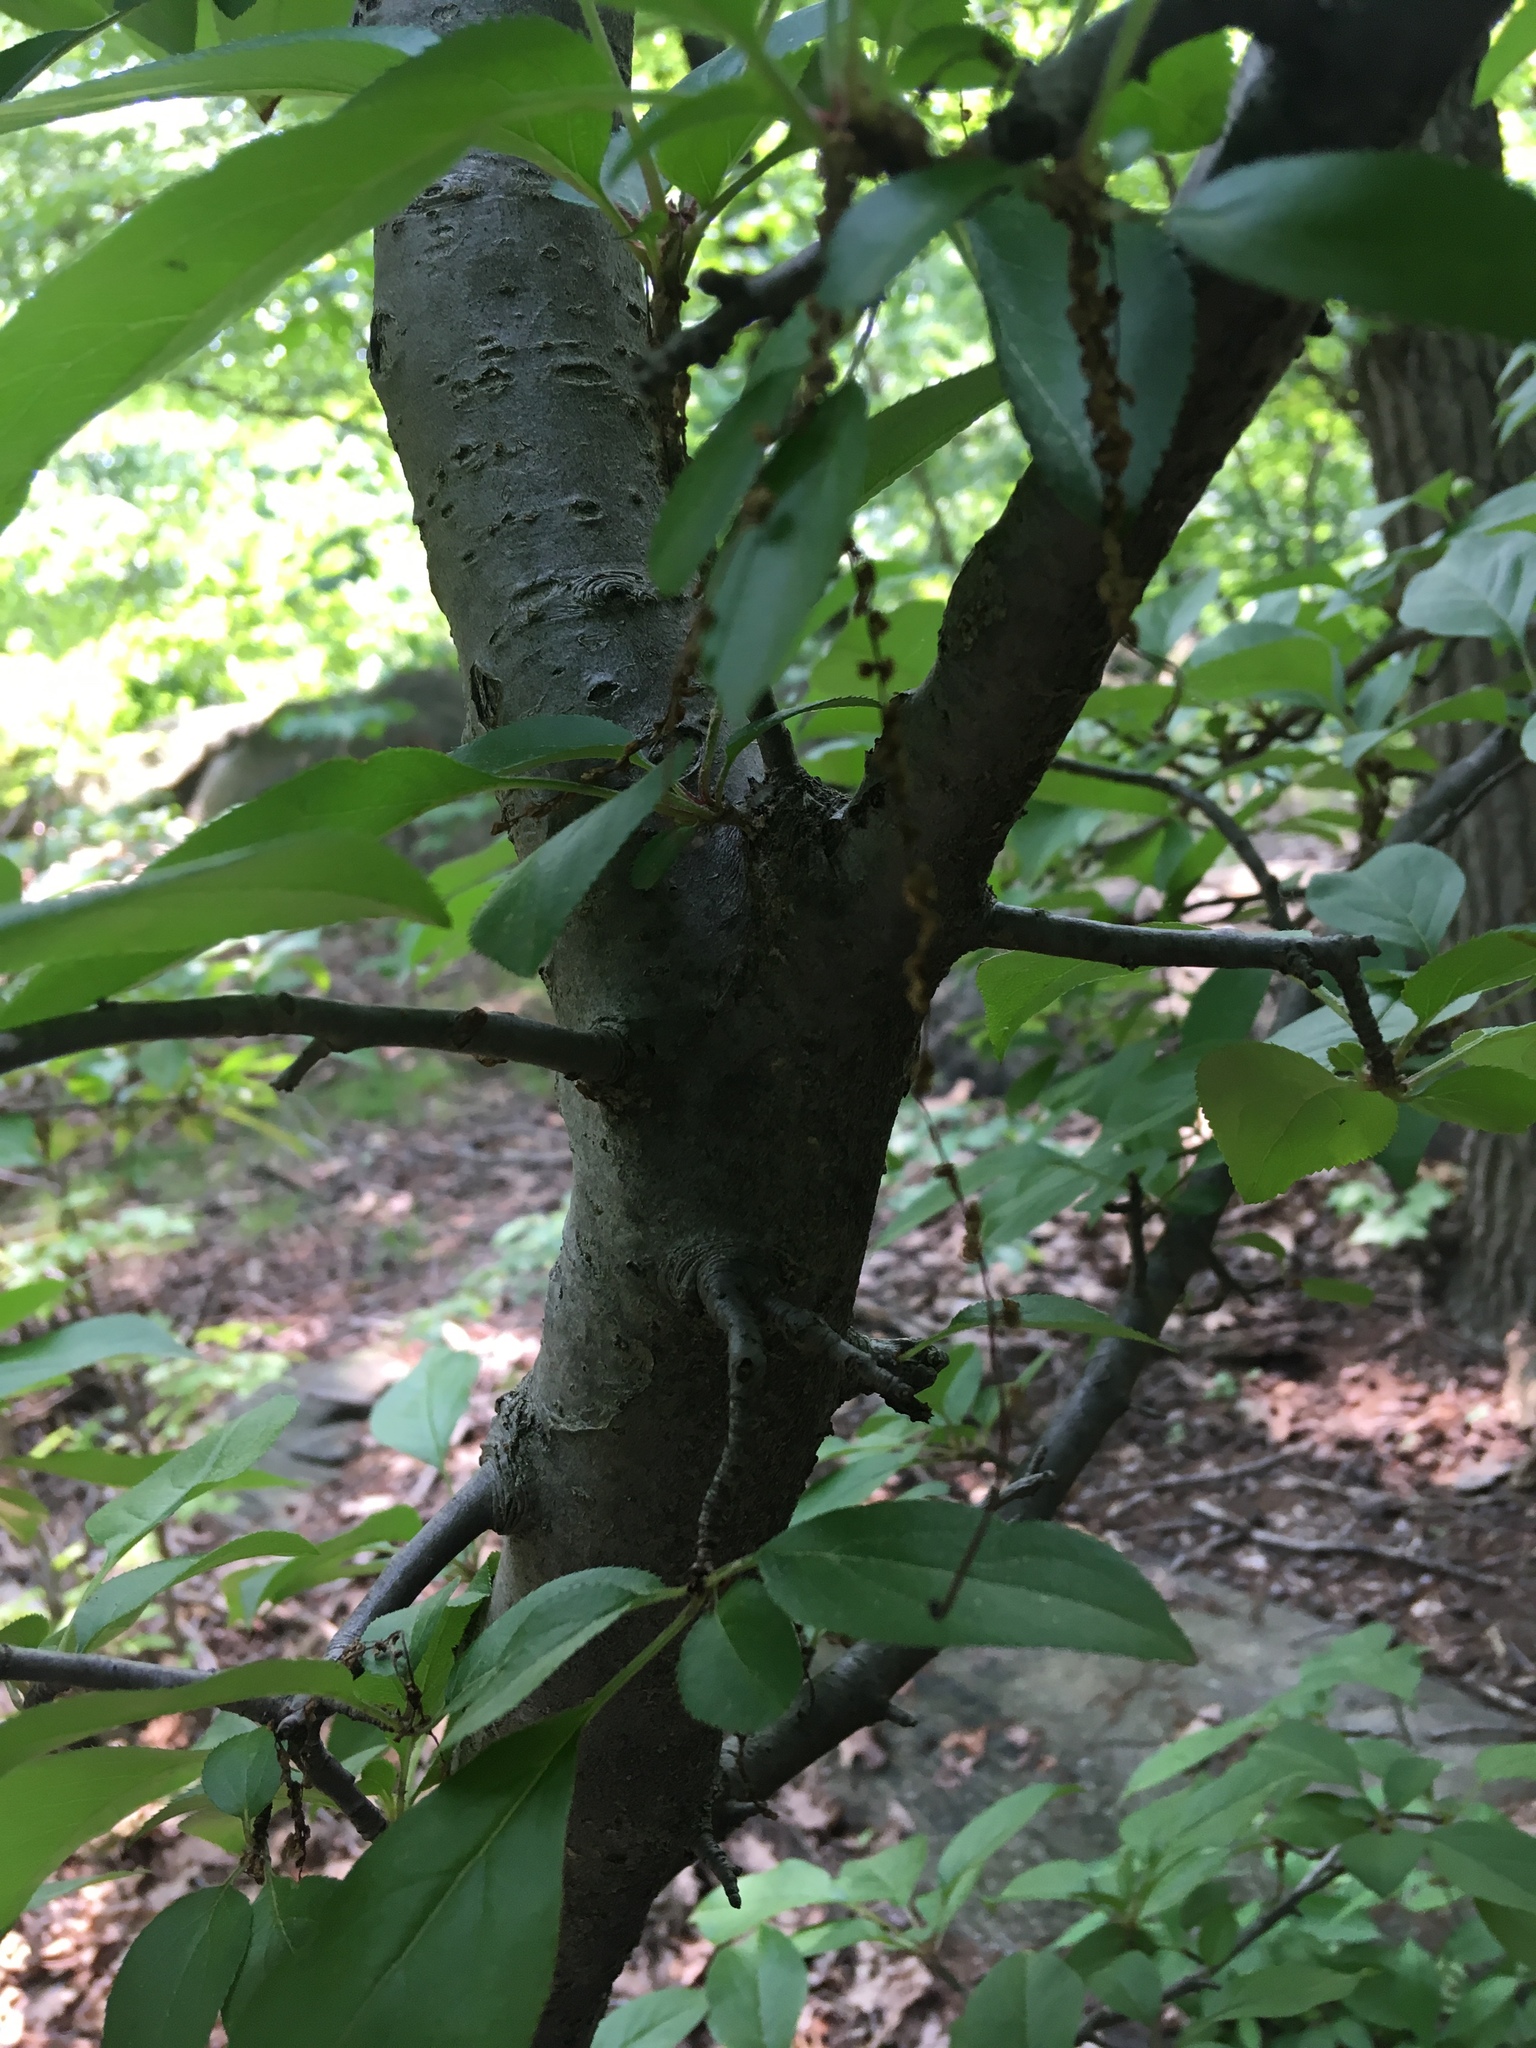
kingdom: Plantae
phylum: Tracheophyta
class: Magnoliopsida
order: Rosales
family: Rosaceae
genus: Malus
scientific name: Malus hupehensis
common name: Chinese crab apple
